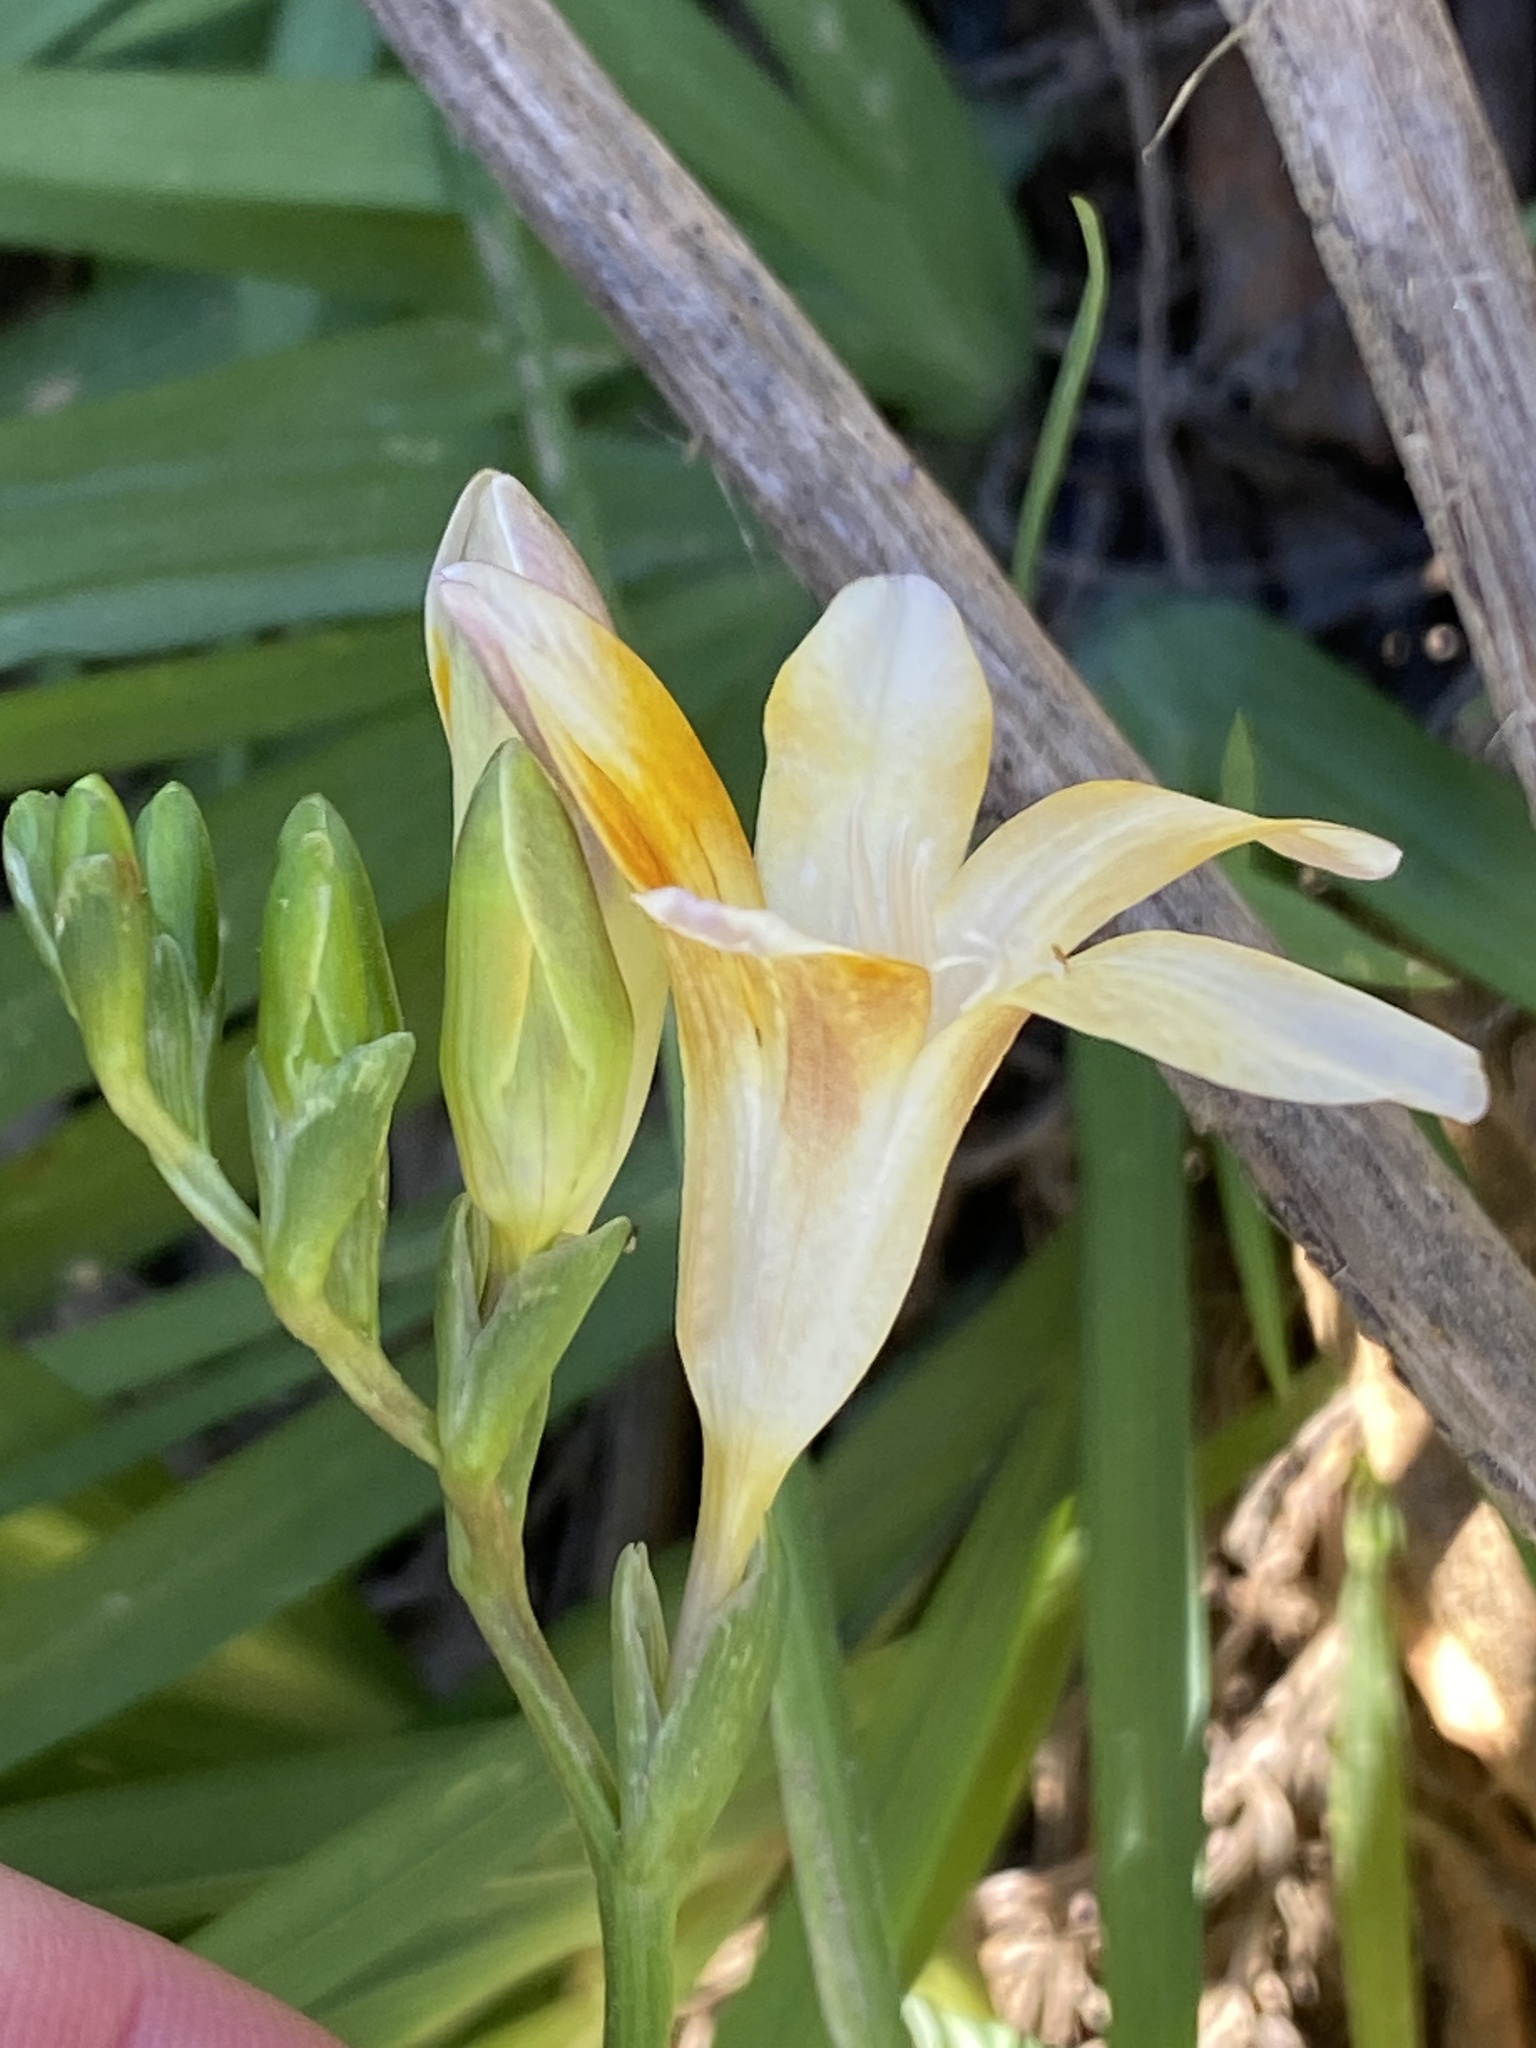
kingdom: Plantae
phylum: Tracheophyta
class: Liliopsida
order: Asparagales
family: Iridaceae
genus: Freesia
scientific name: Freesia caryophyllacea
